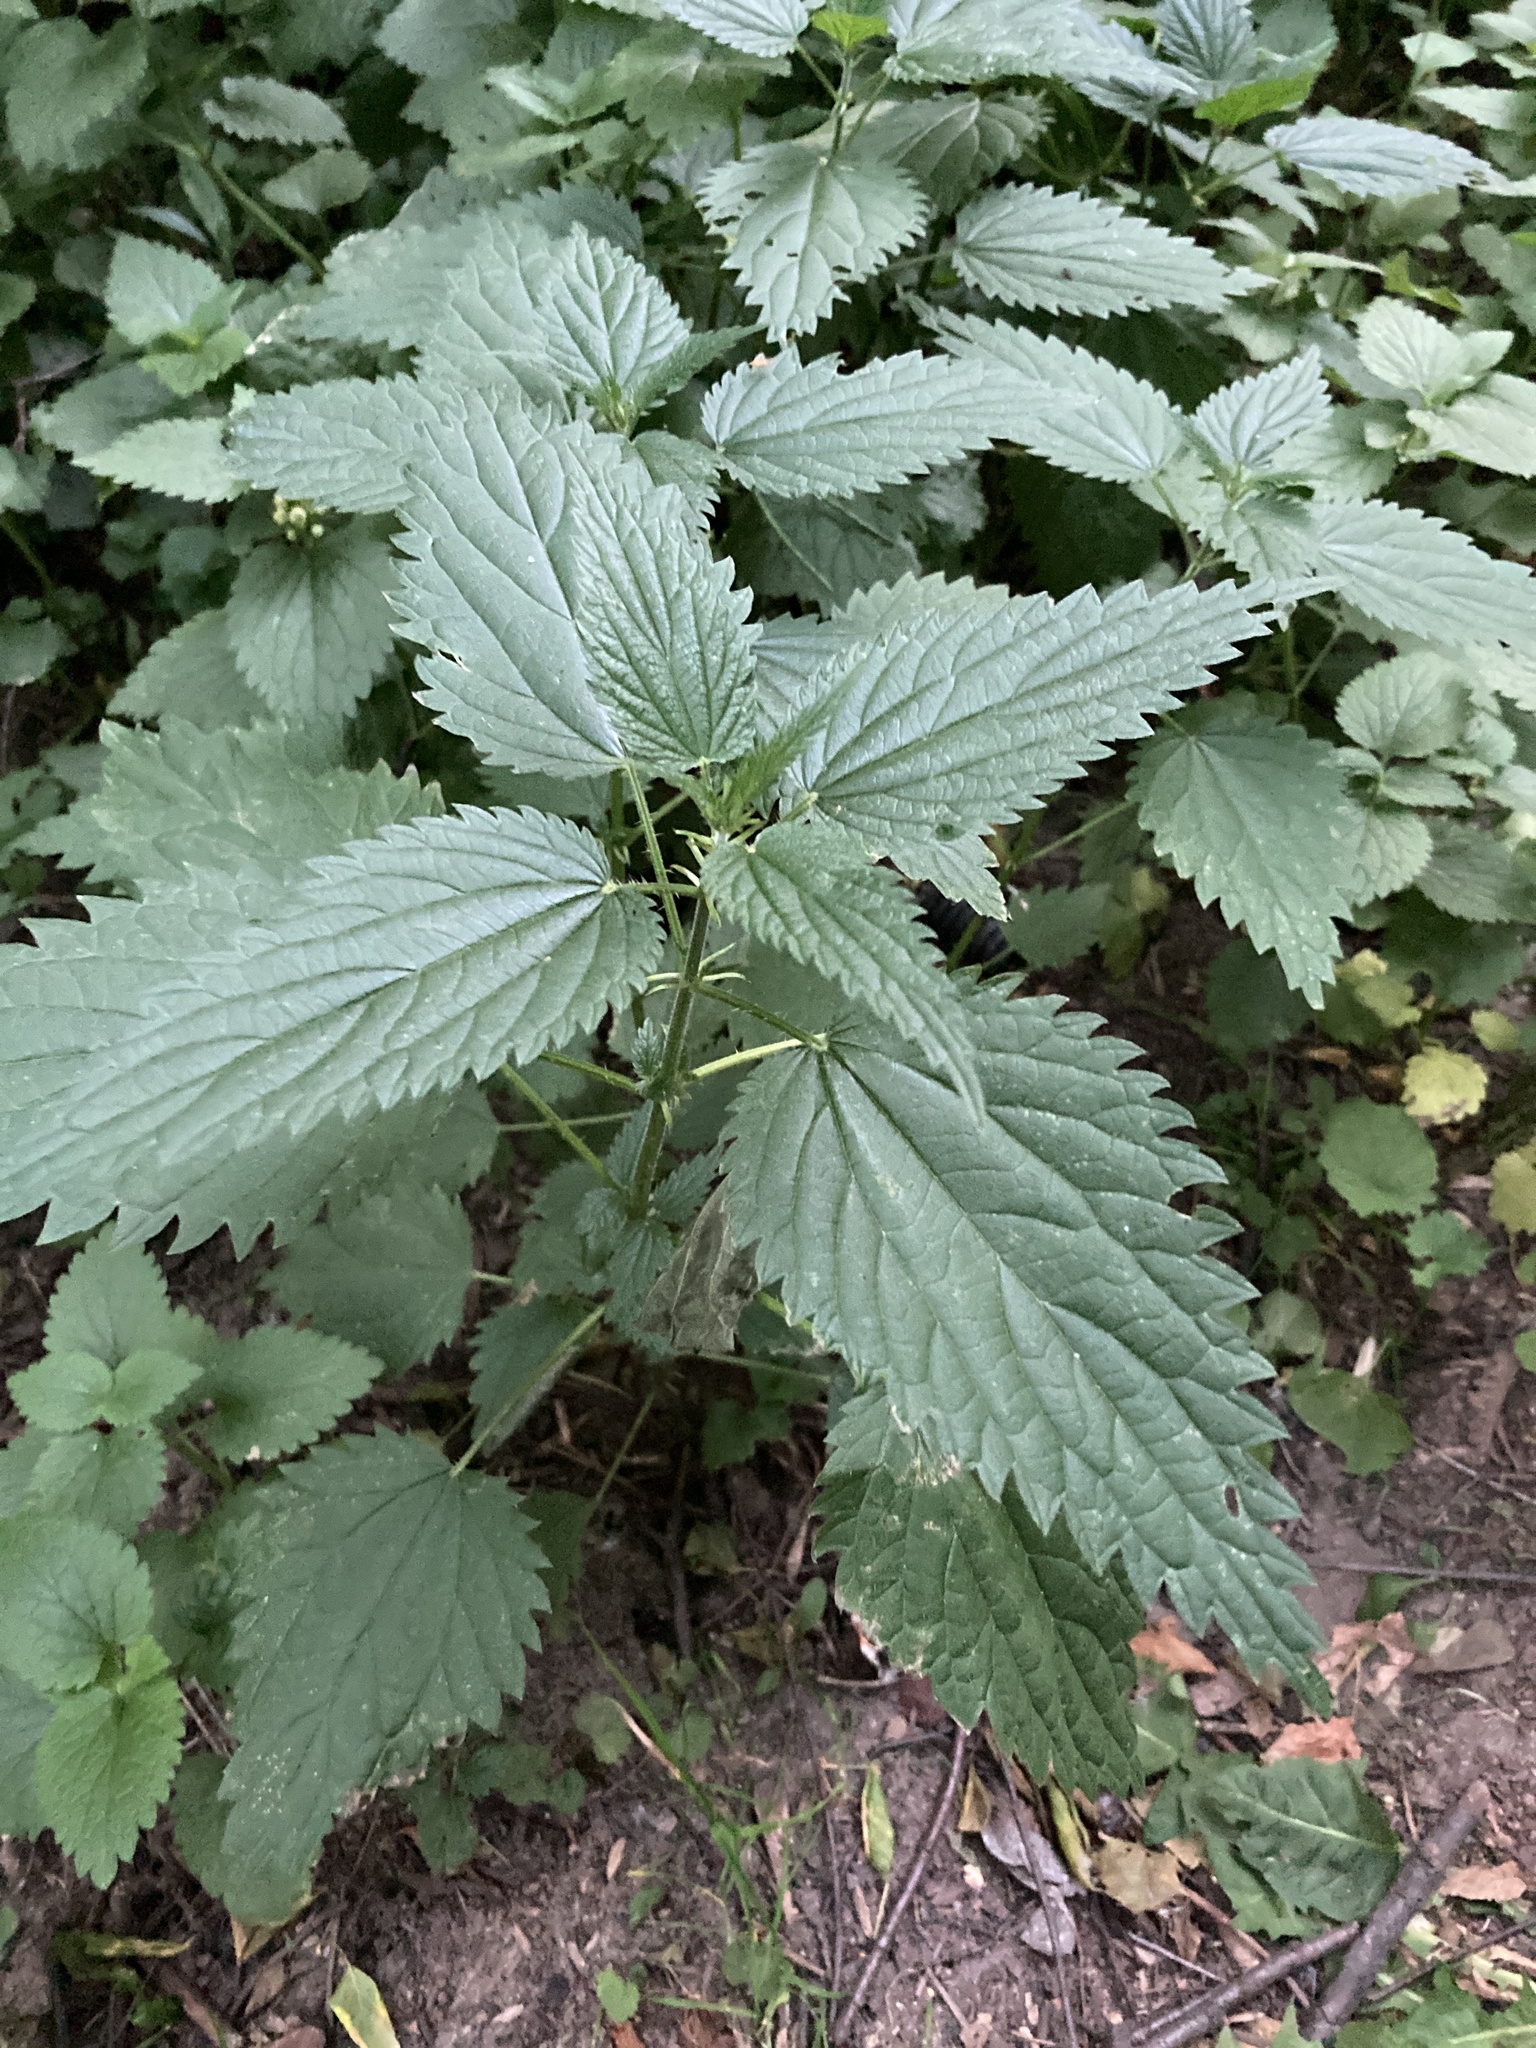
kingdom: Plantae
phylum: Tracheophyta
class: Magnoliopsida
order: Rosales
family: Urticaceae
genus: Urtica
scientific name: Urtica dioica
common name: Common nettle
